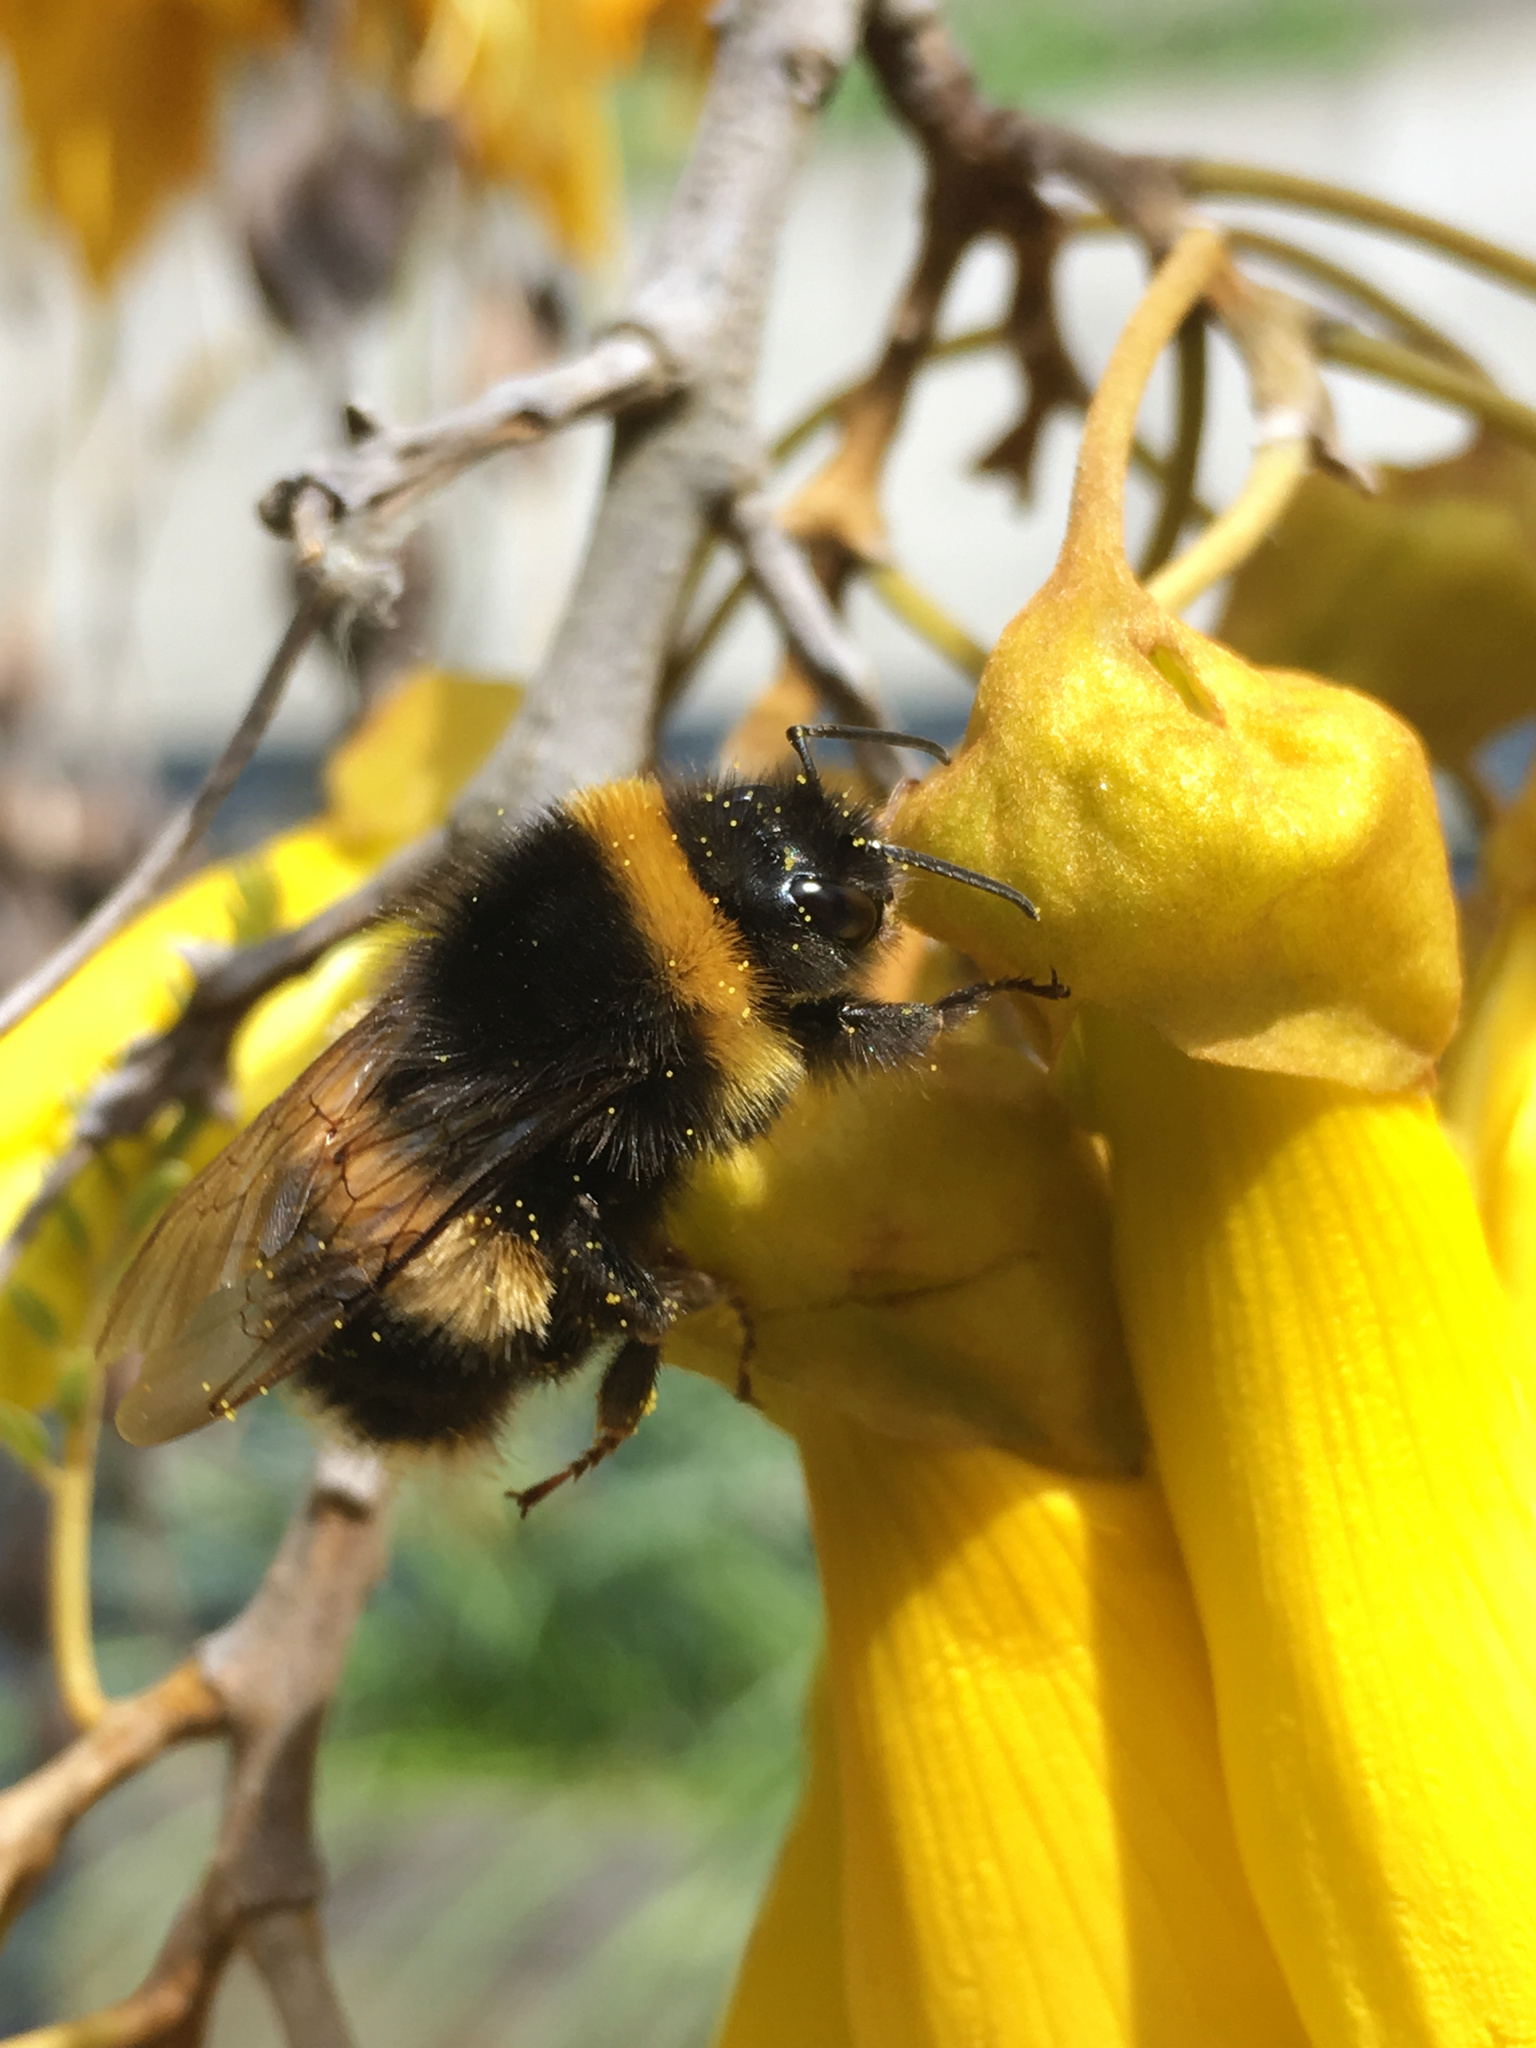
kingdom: Animalia
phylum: Arthropoda
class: Insecta
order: Hymenoptera
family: Apidae
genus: Bombus
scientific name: Bombus terrestris
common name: Buff-tailed bumblebee
